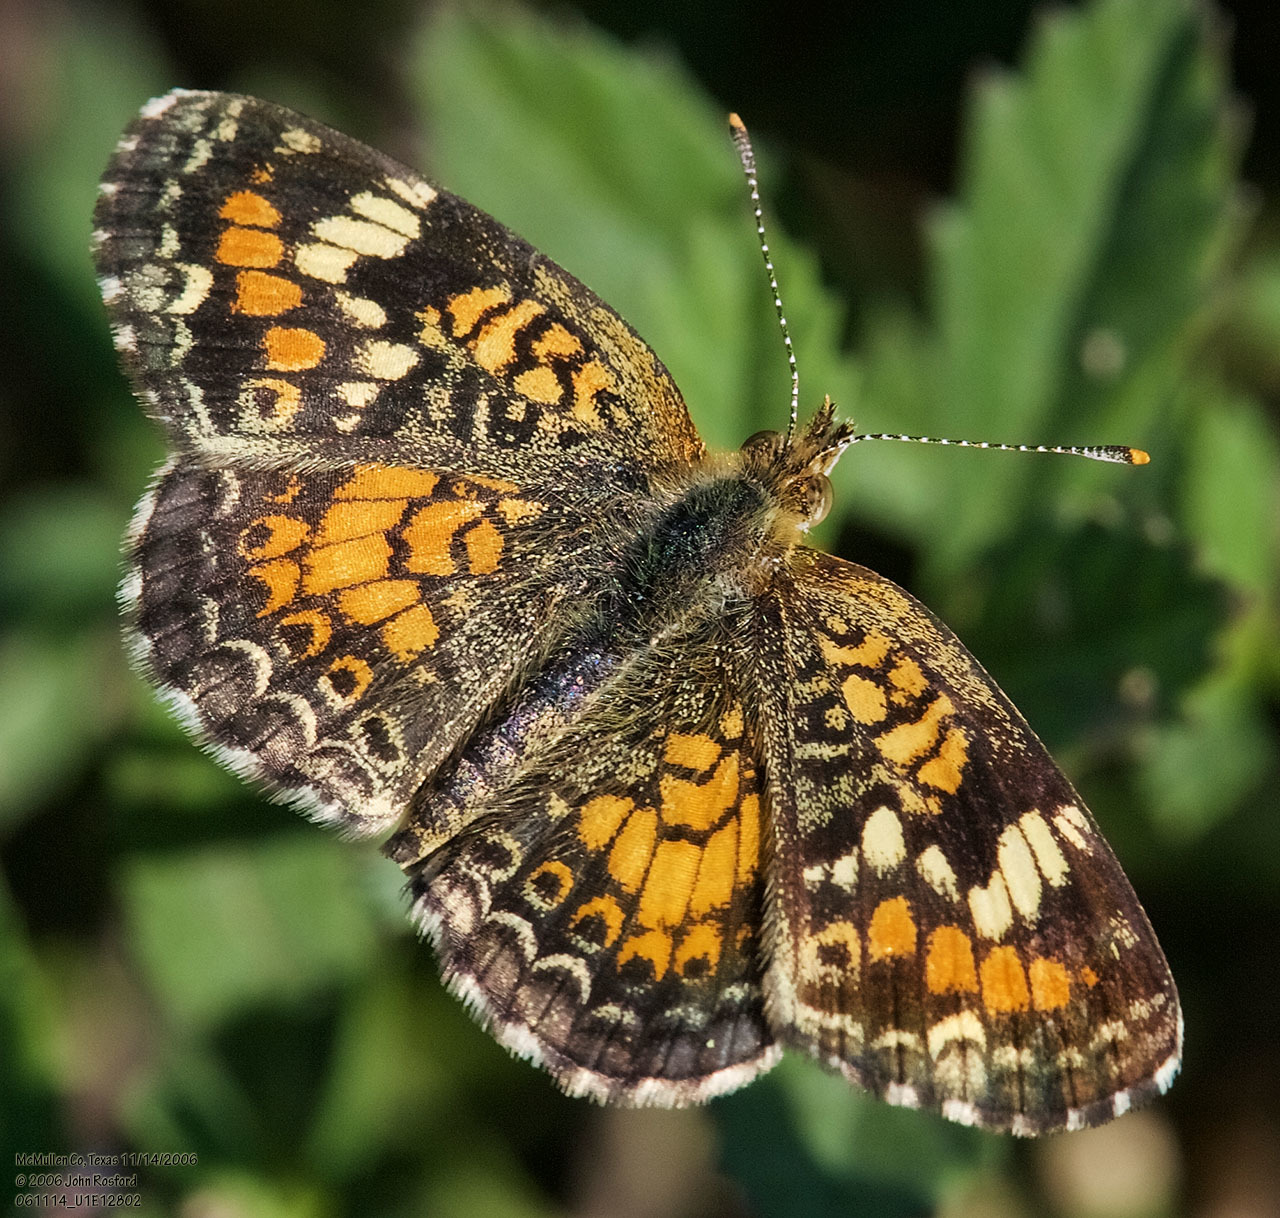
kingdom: Animalia
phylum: Arthropoda
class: Insecta
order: Lepidoptera
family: Nymphalidae
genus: Phyciodes
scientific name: Phyciodes phaon
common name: Phaon crescent
